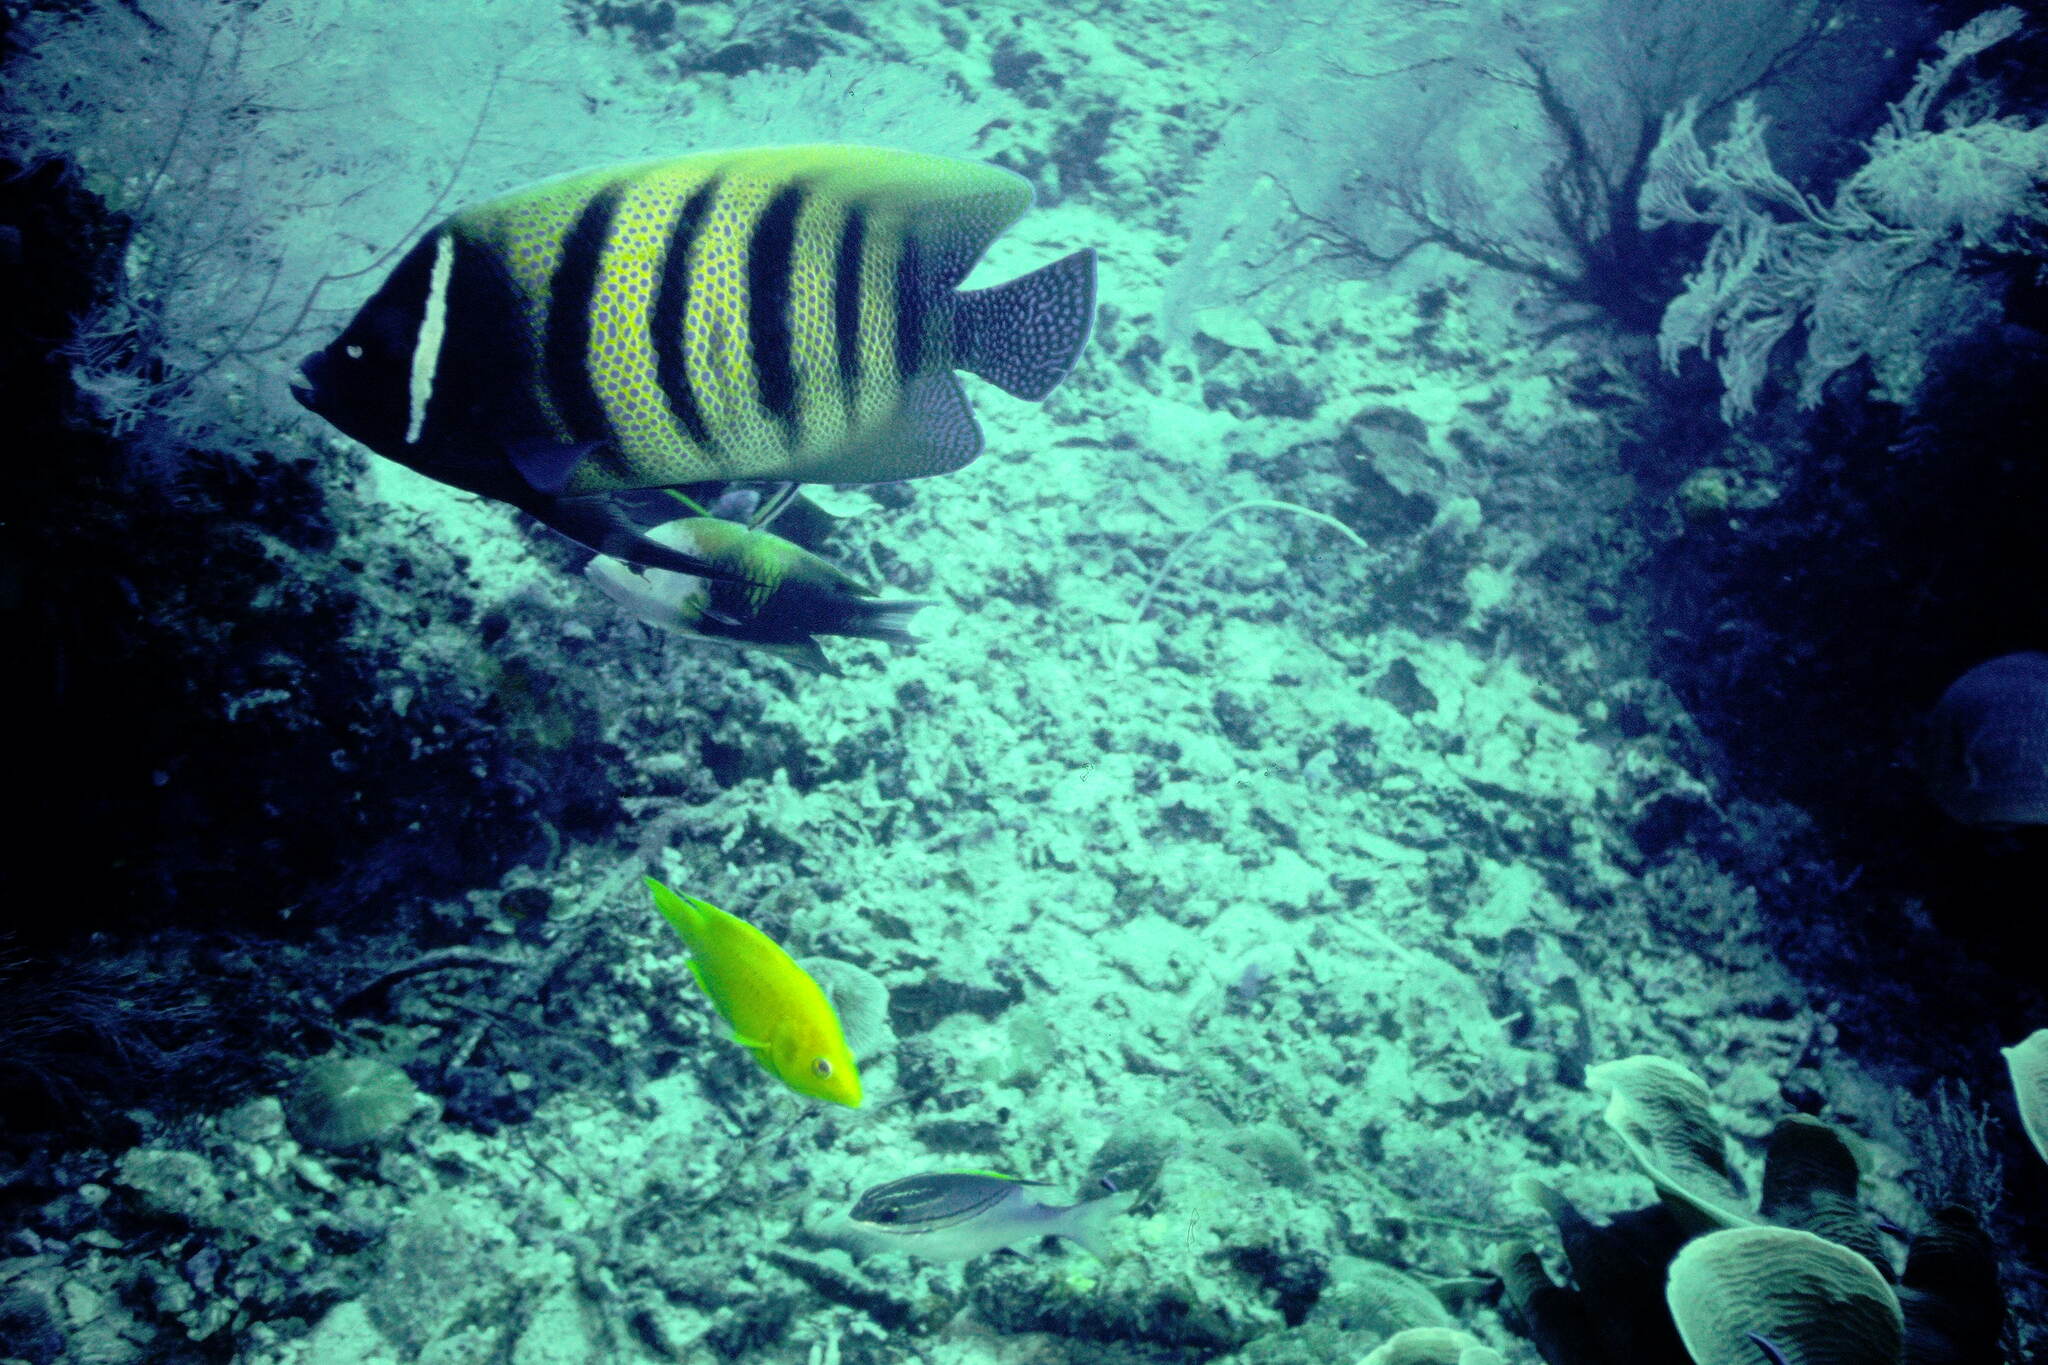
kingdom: Animalia
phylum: Chordata
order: Perciformes
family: Pomacanthidae
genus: Pomacanthus
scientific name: Pomacanthus sexstriatus
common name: Six-banded angelfish
